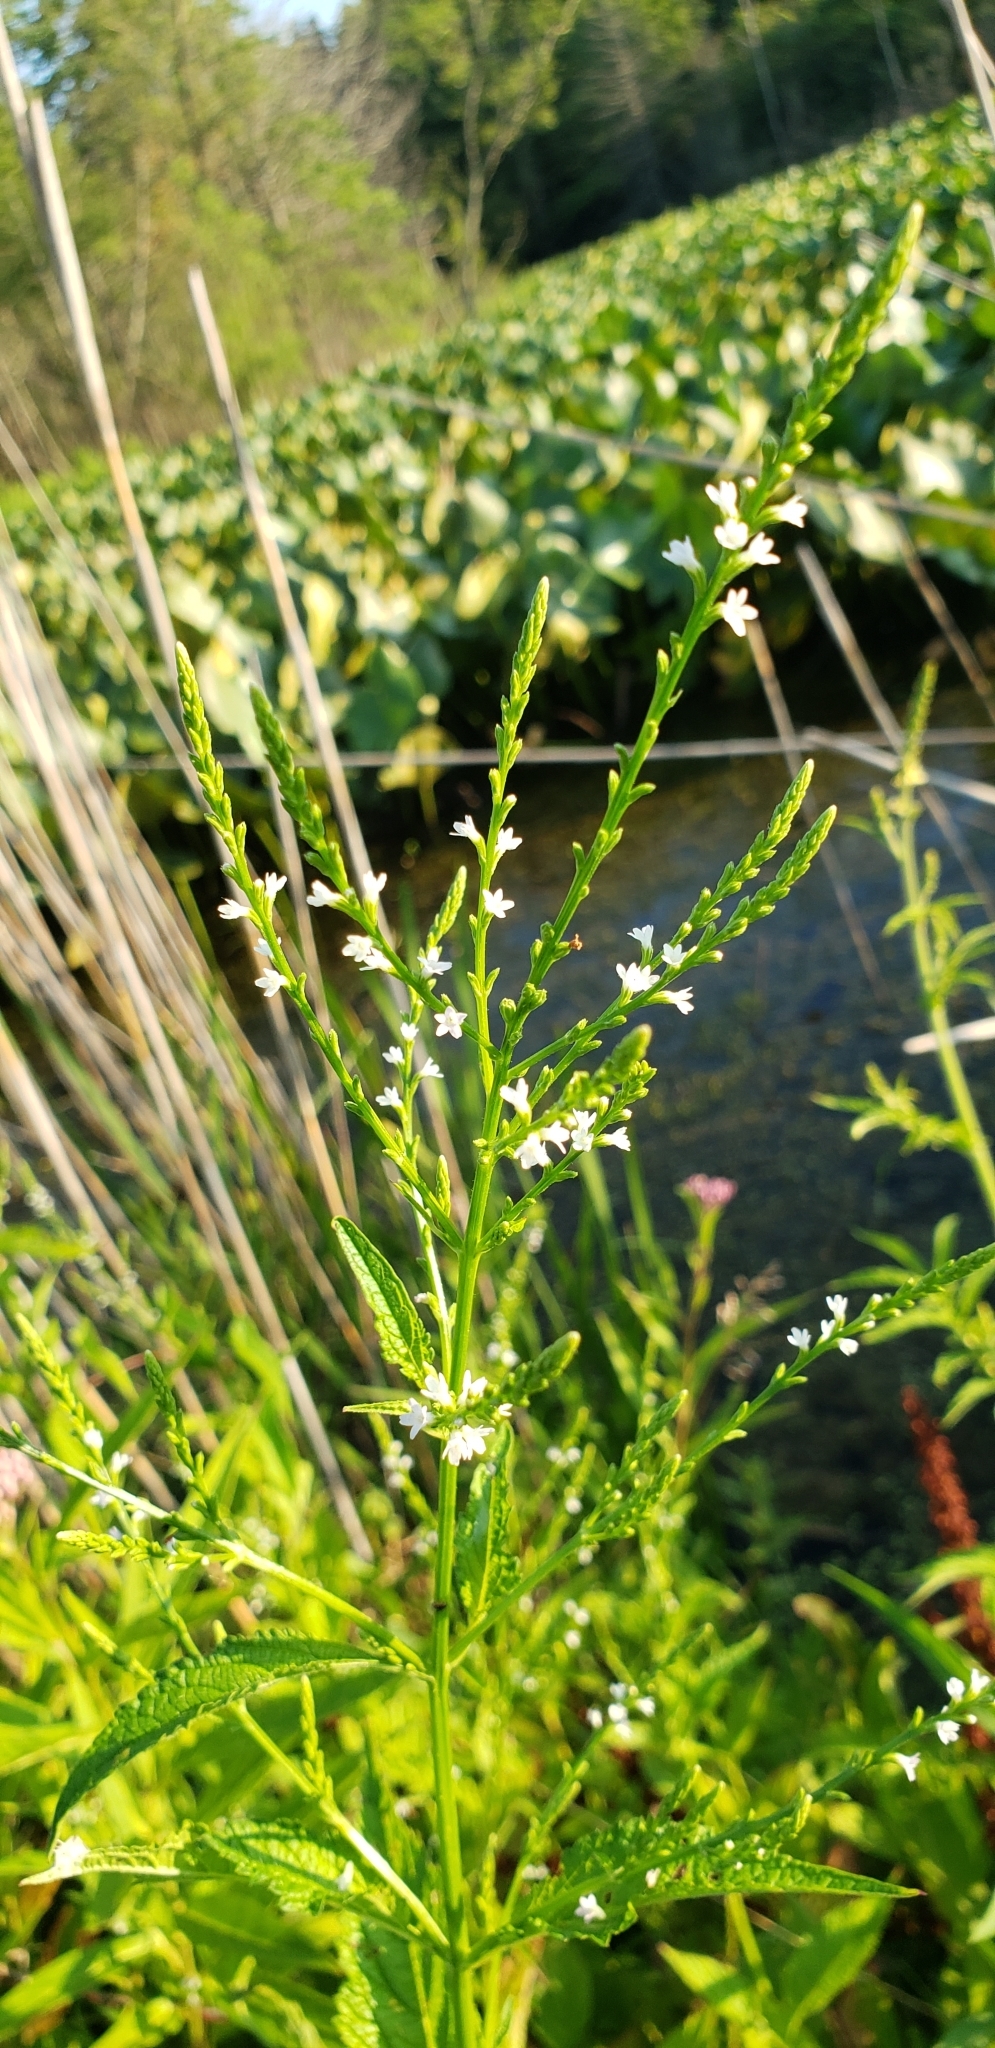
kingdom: Plantae
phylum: Tracheophyta
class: Magnoliopsida
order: Lamiales
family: Verbenaceae
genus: Verbena
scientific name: Verbena urticifolia
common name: Nettle-leaved vervain
